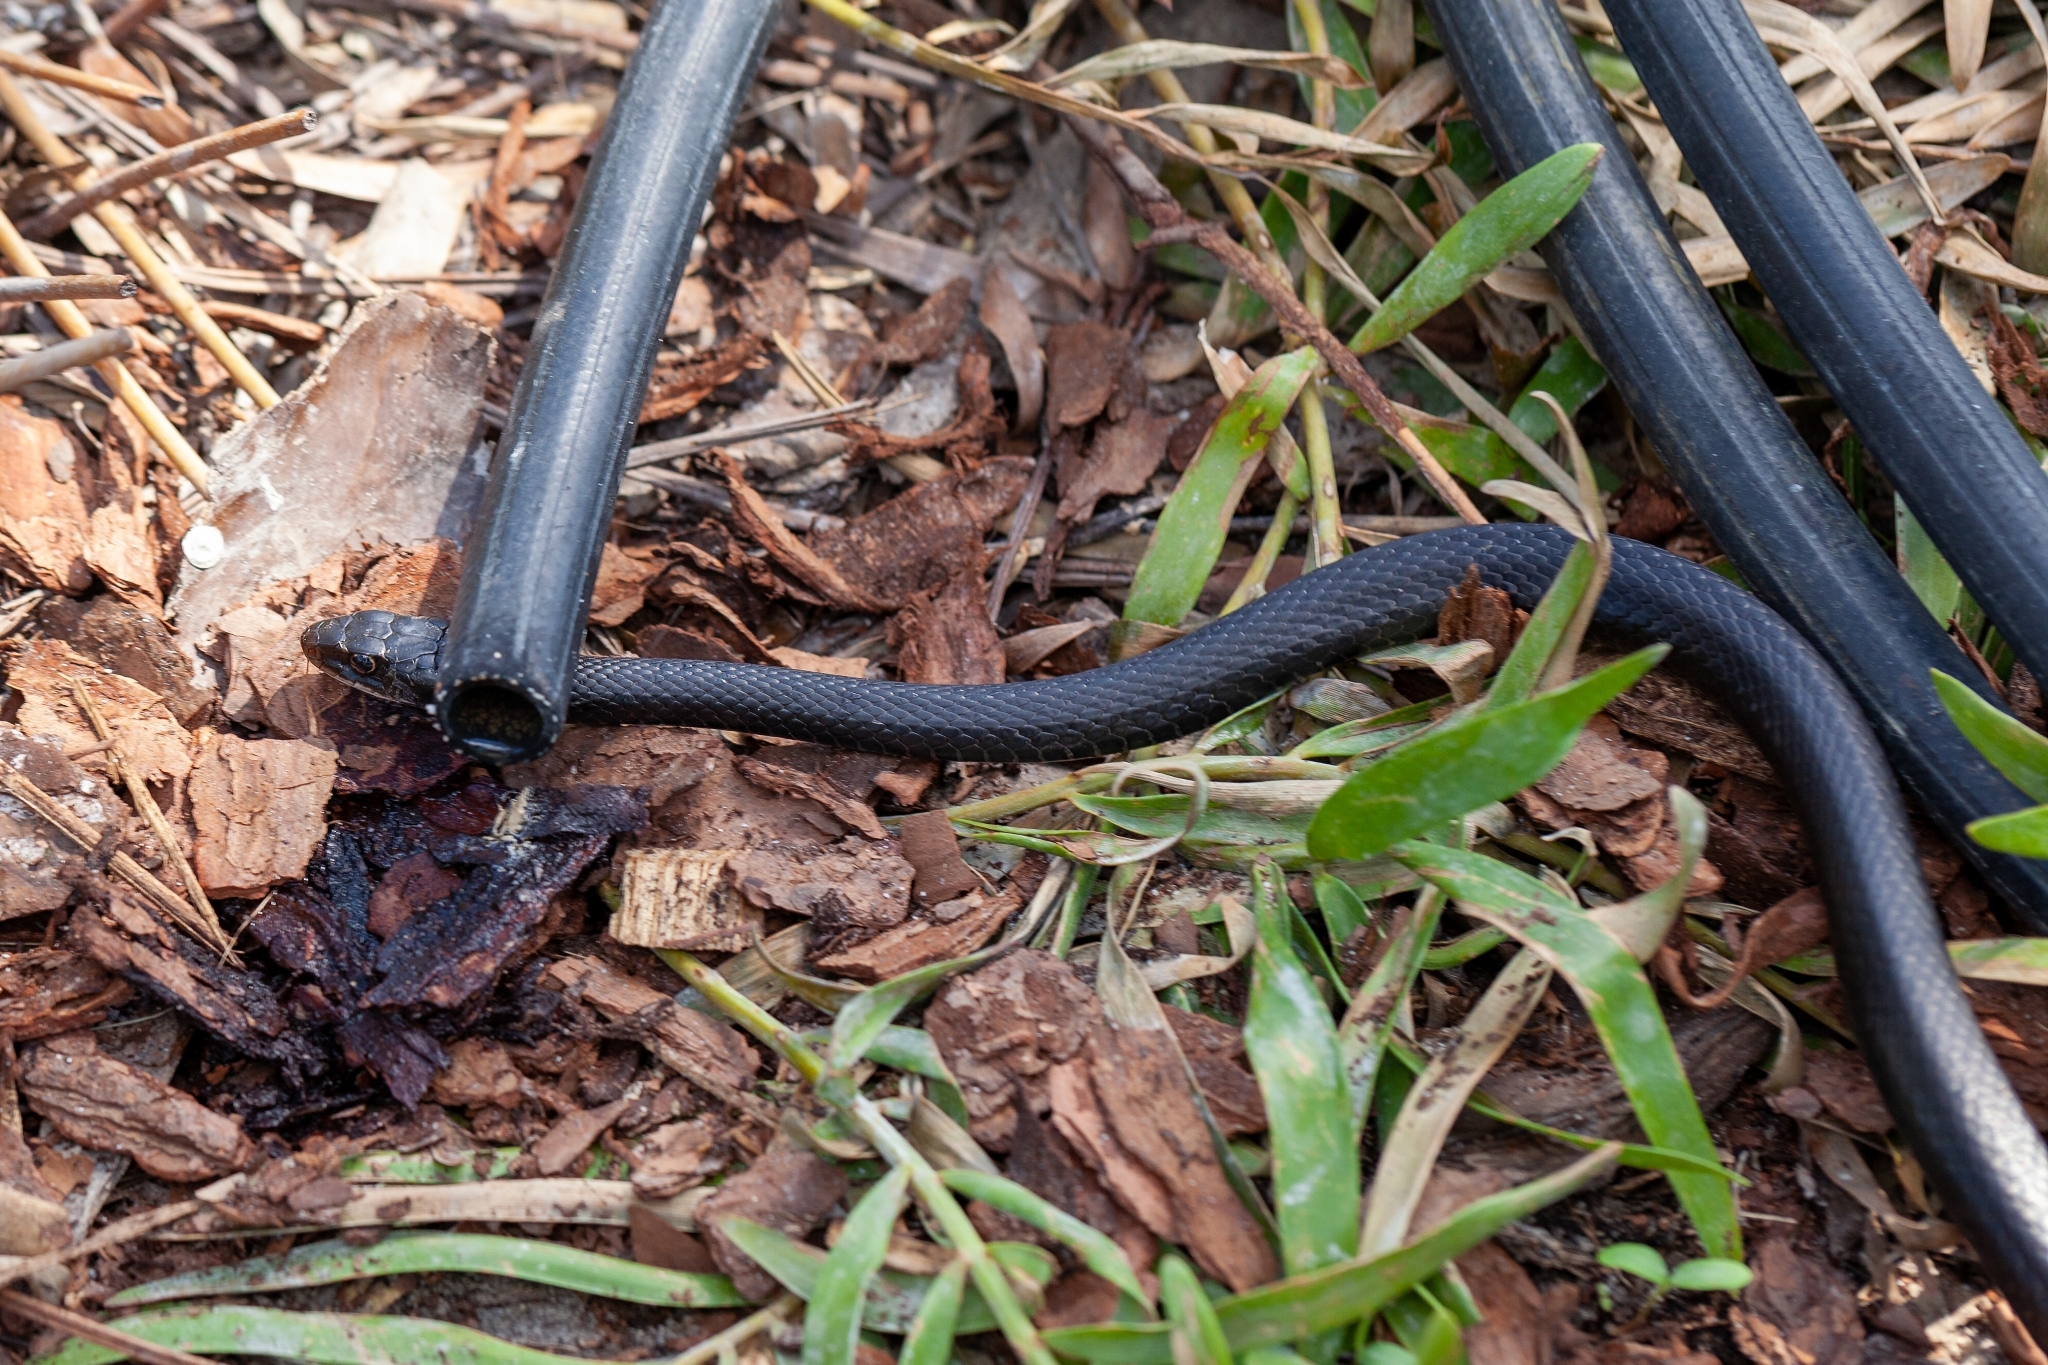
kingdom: Animalia
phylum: Chordata
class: Squamata
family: Colubridae
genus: Coluber
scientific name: Coluber constrictor
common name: Eastern racer
